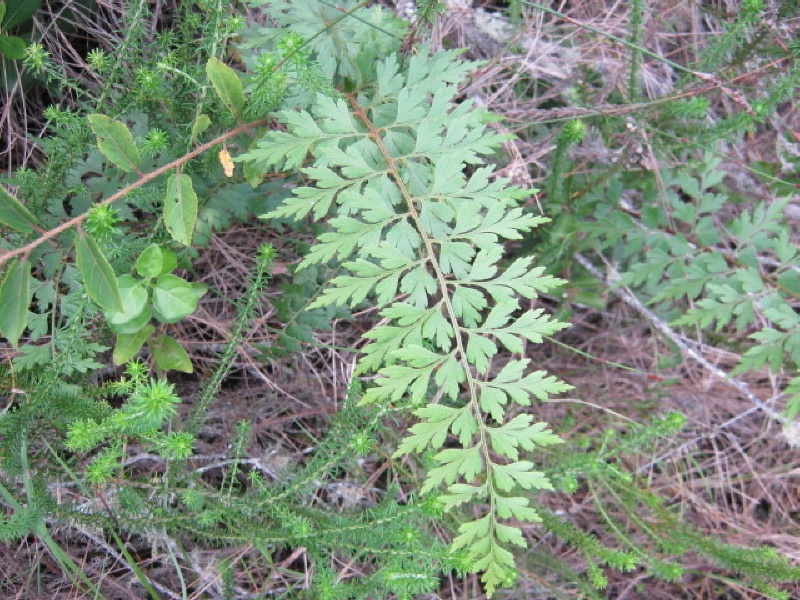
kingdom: Plantae
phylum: Tracheophyta
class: Polypodiopsida
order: Polypodiales
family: Aspleniaceae
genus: Asplenium
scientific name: Asplenium aethiopicum
